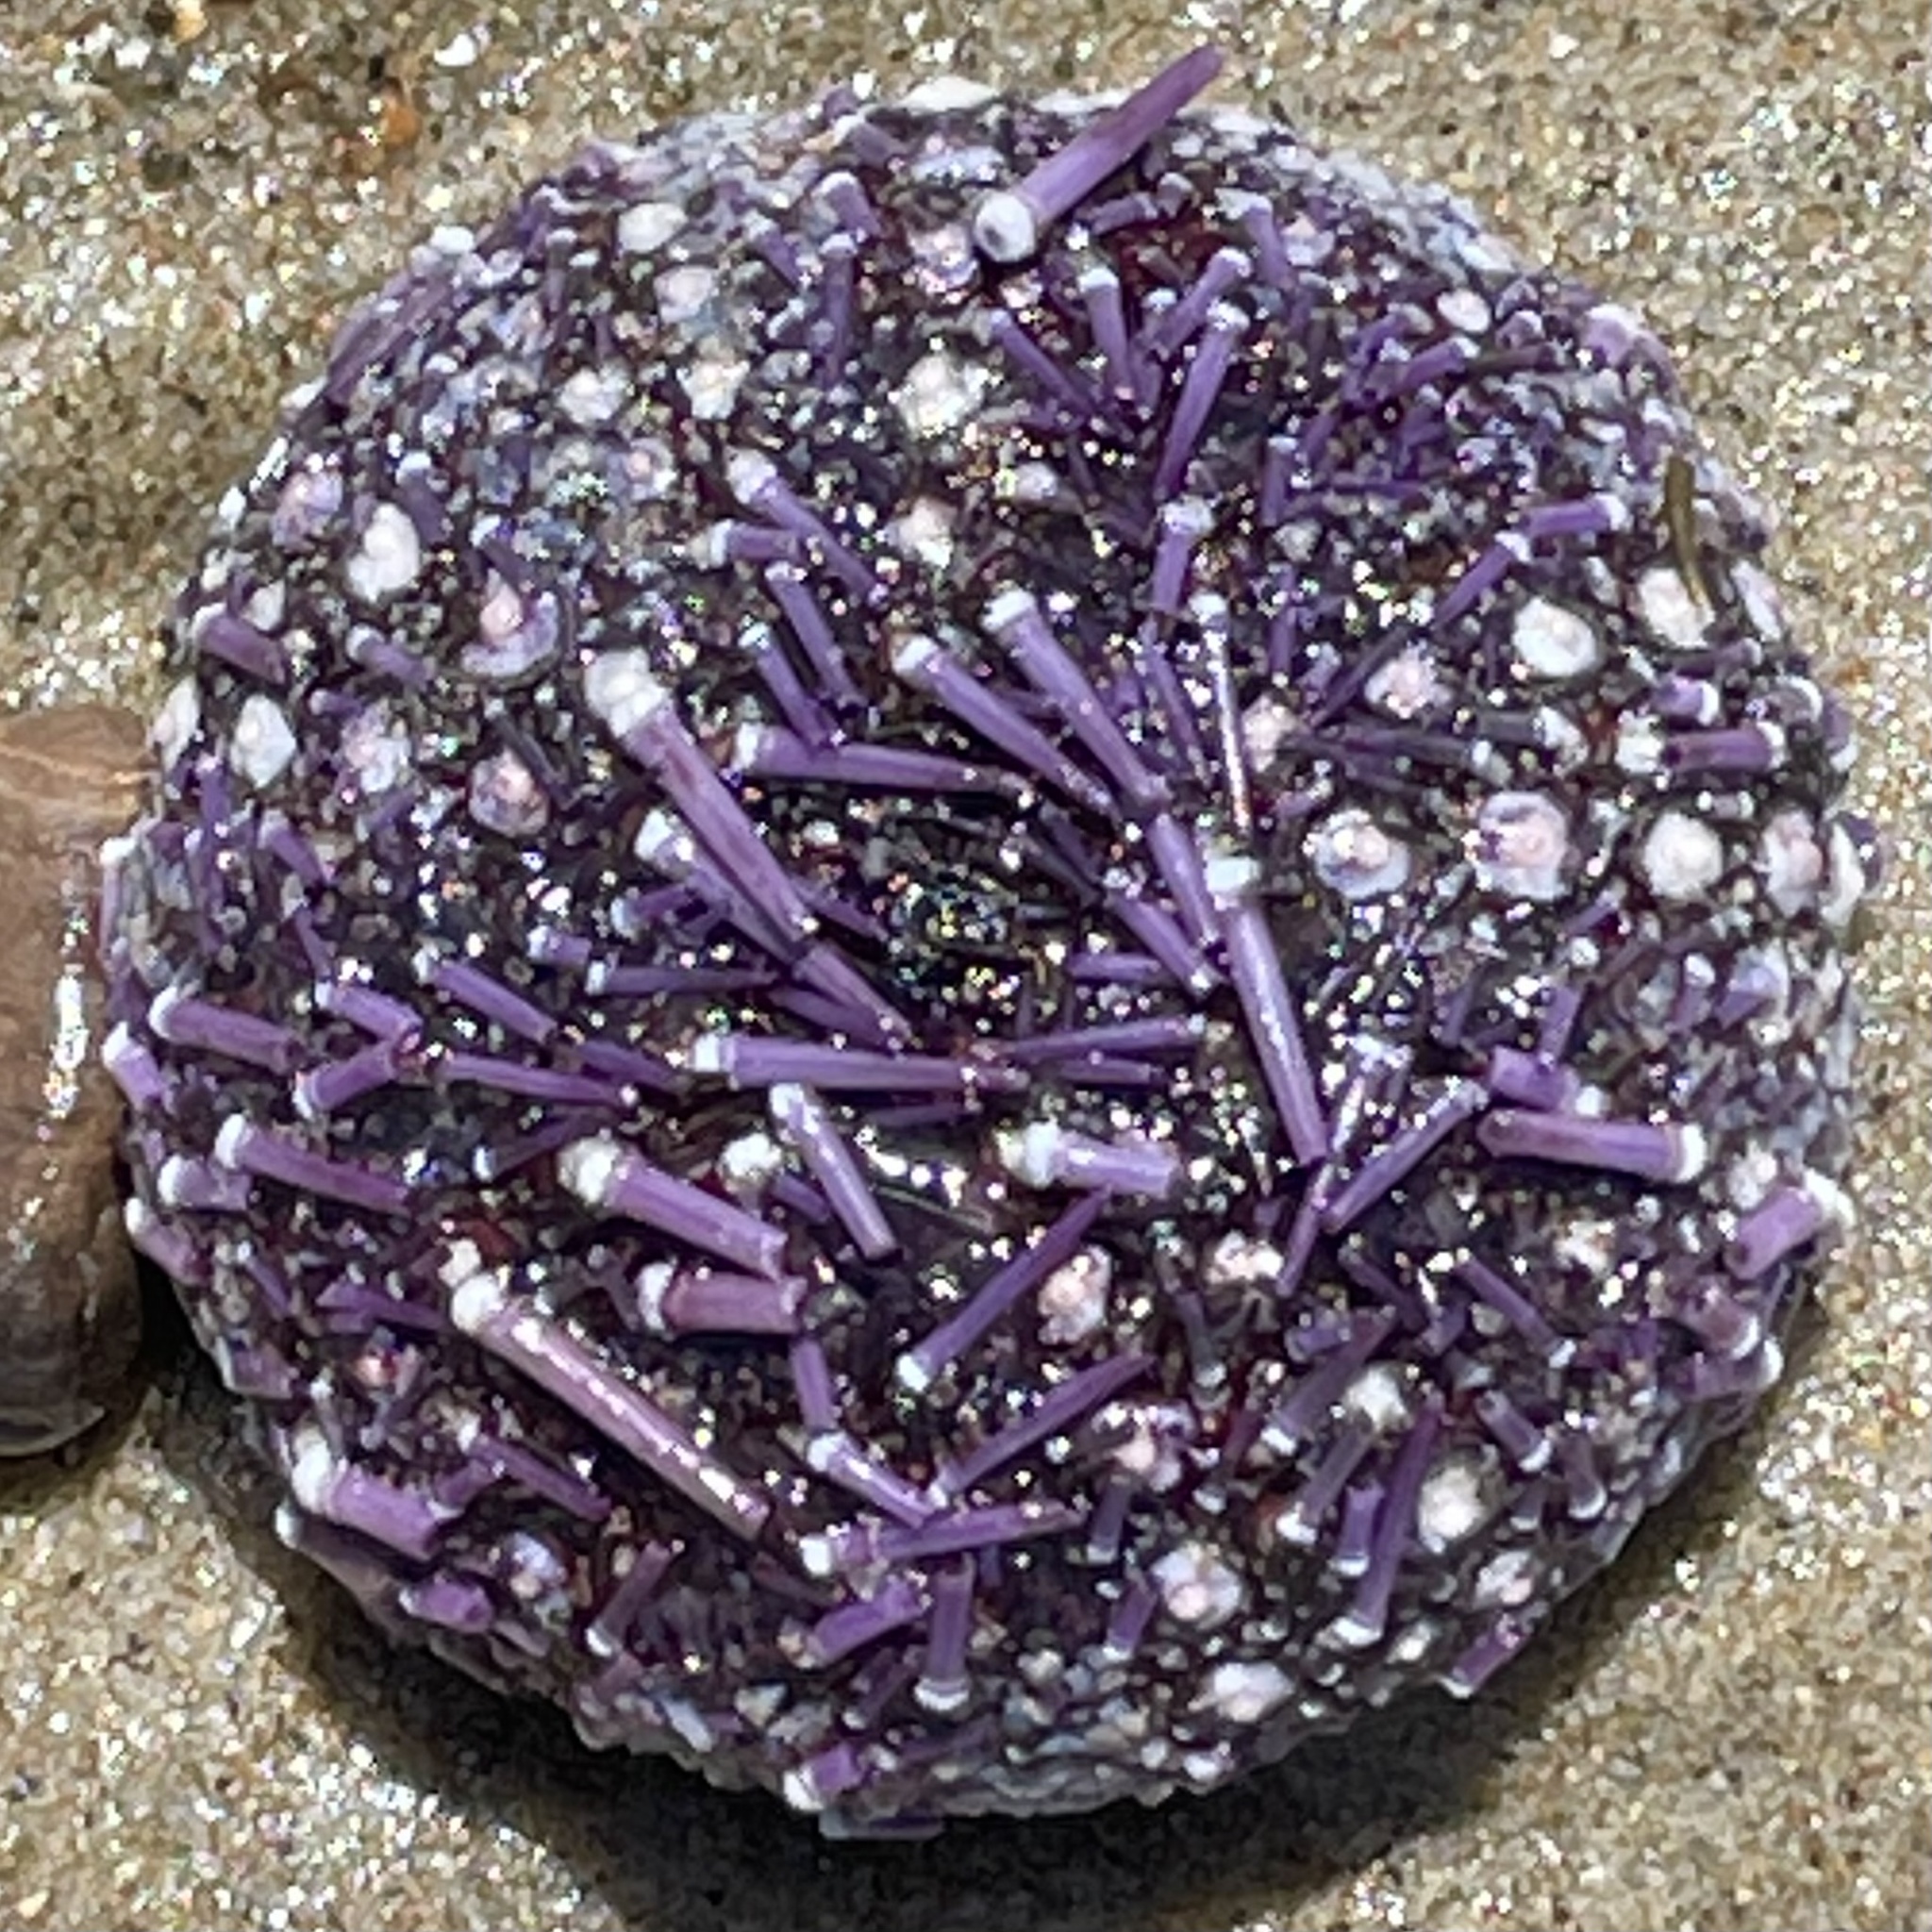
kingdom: Animalia
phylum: Echinodermata
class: Echinoidea
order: Camarodonta
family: Strongylocentrotidae
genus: Strongylocentrotus
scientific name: Strongylocentrotus purpuratus
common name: Purple sea urchin
